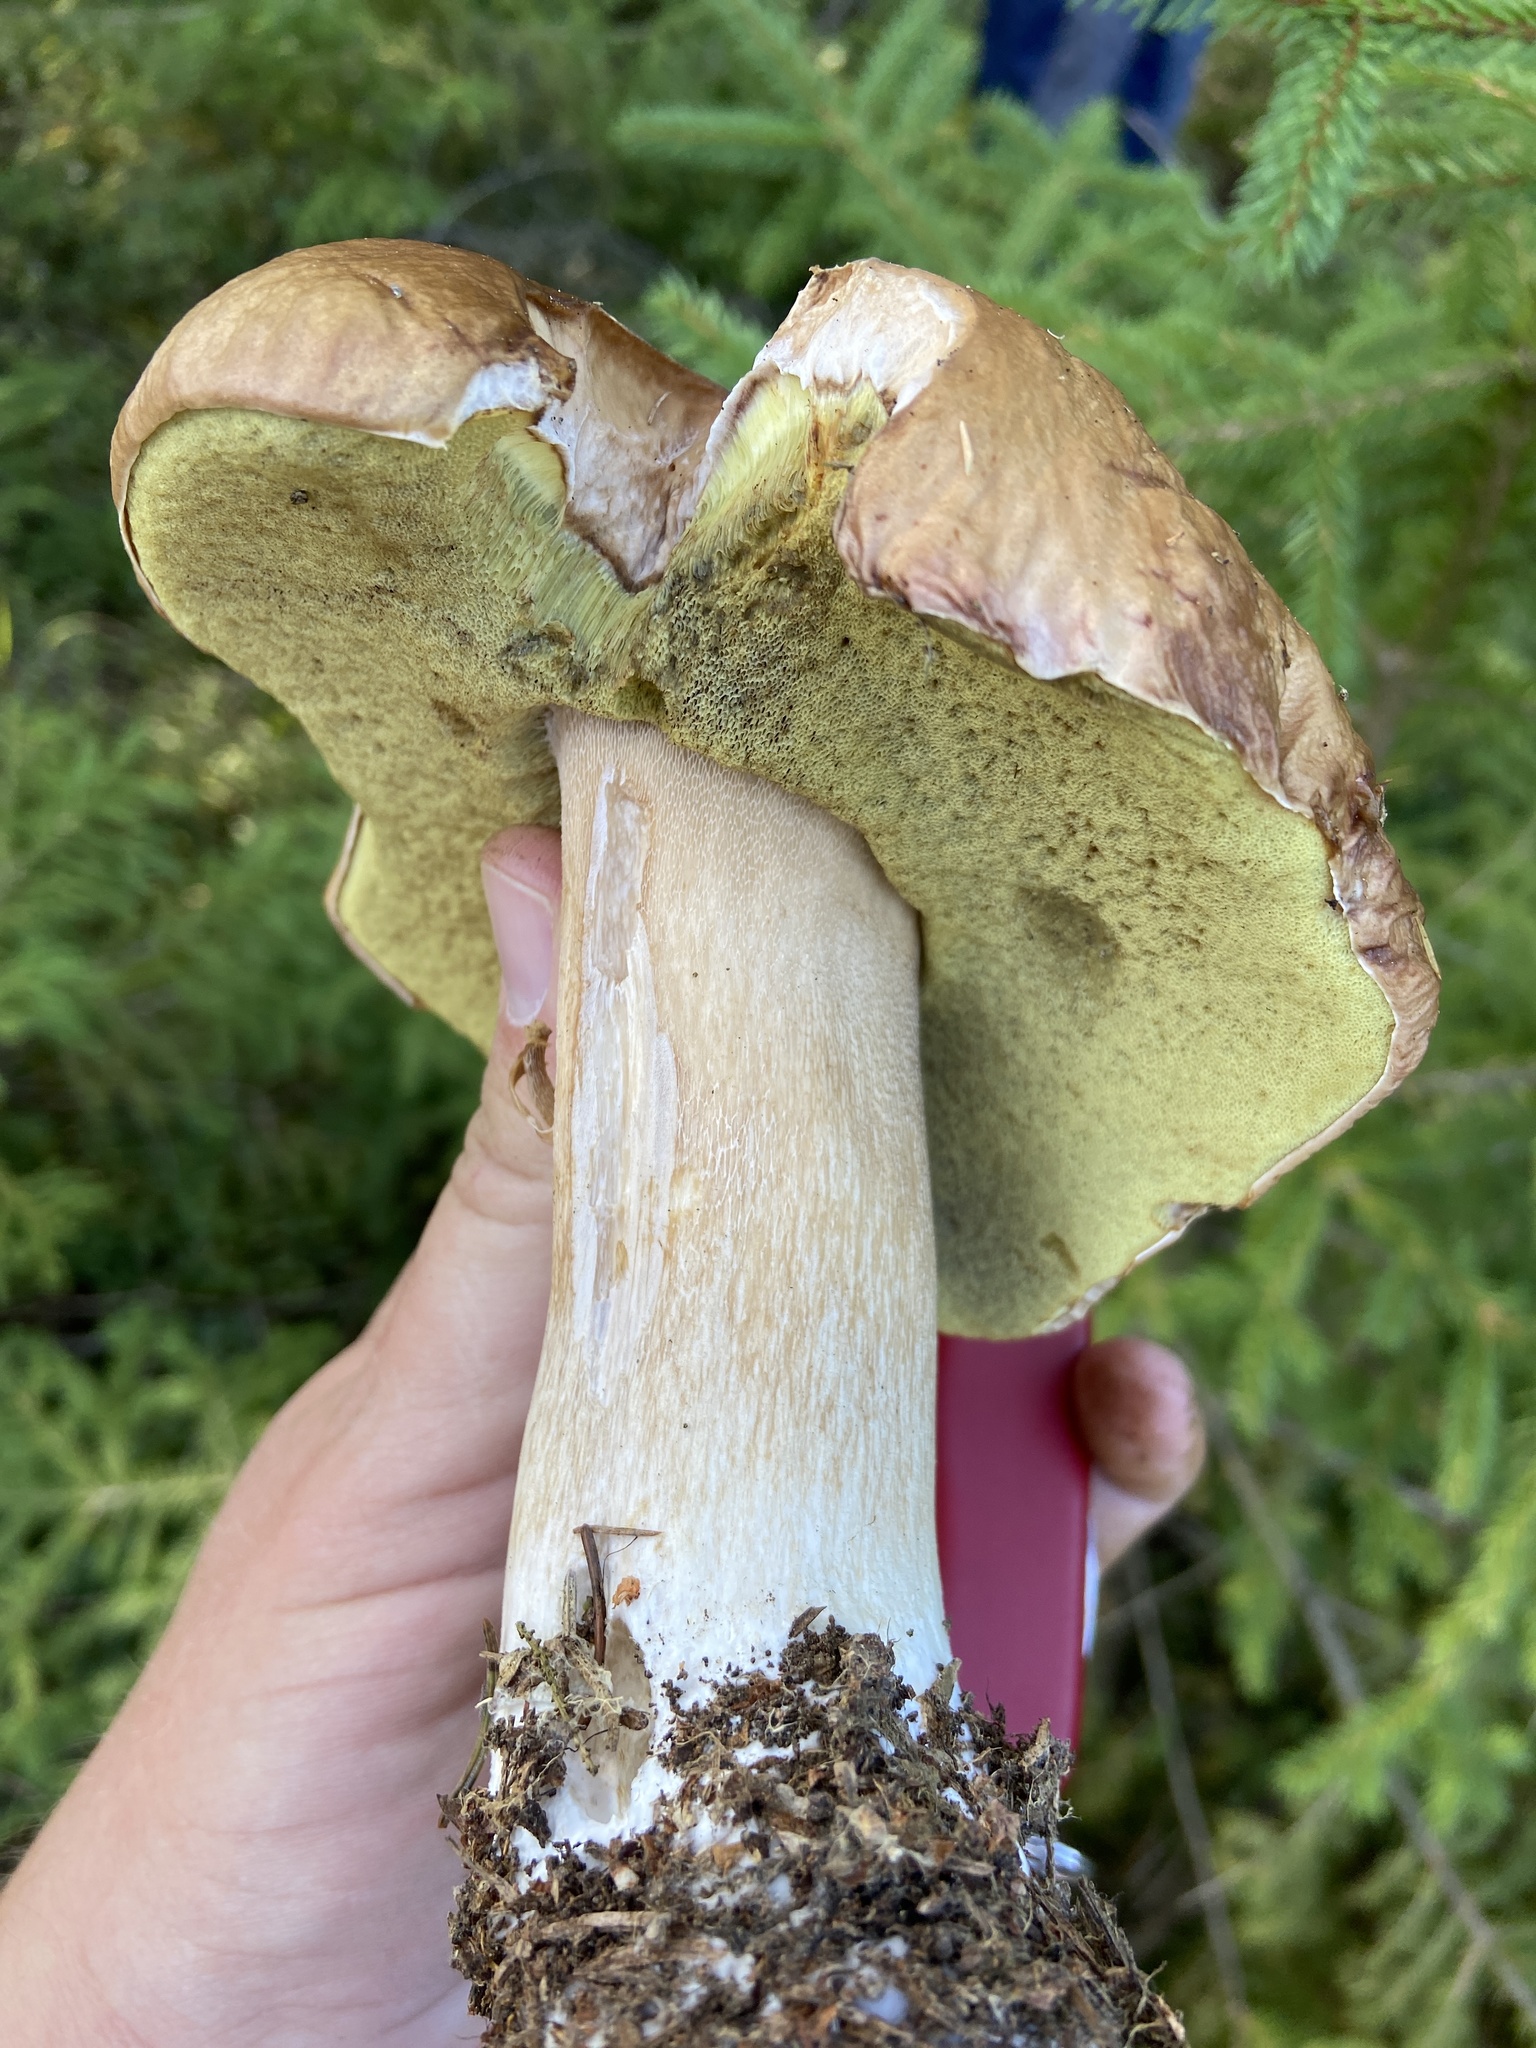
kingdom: Fungi
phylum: Basidiomycota
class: Agaricomycetes
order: Boletales
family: Boletaceae
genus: Boletus
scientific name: Boletus reticulatus
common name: Summer bolete
